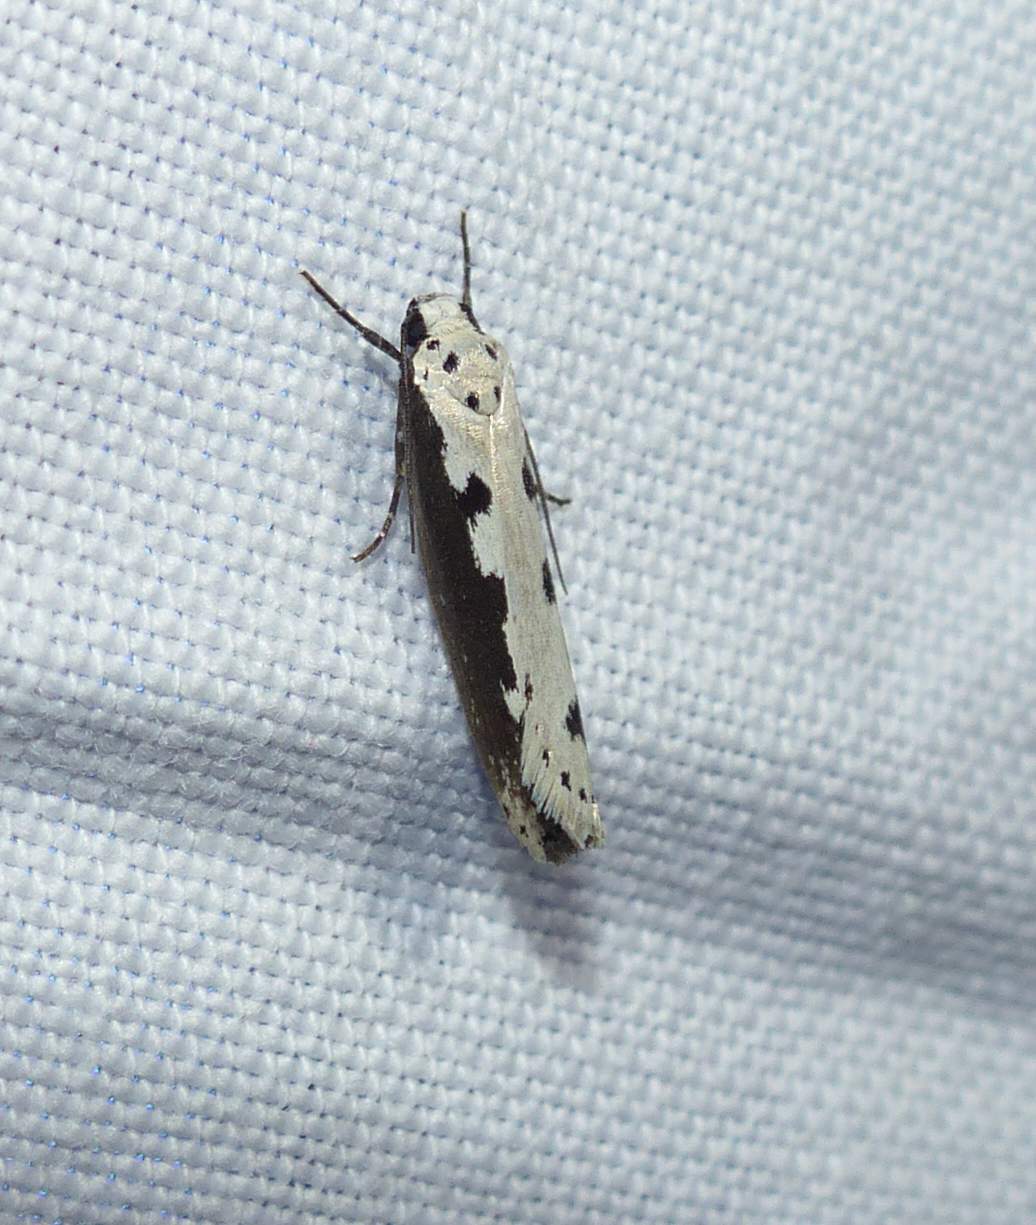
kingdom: Animalia
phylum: Arthropoda
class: Insecta
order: Lepidoptera
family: Ethmiidae
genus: Ethmia
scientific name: Ethmia bipunctella
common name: Bordered ermel
